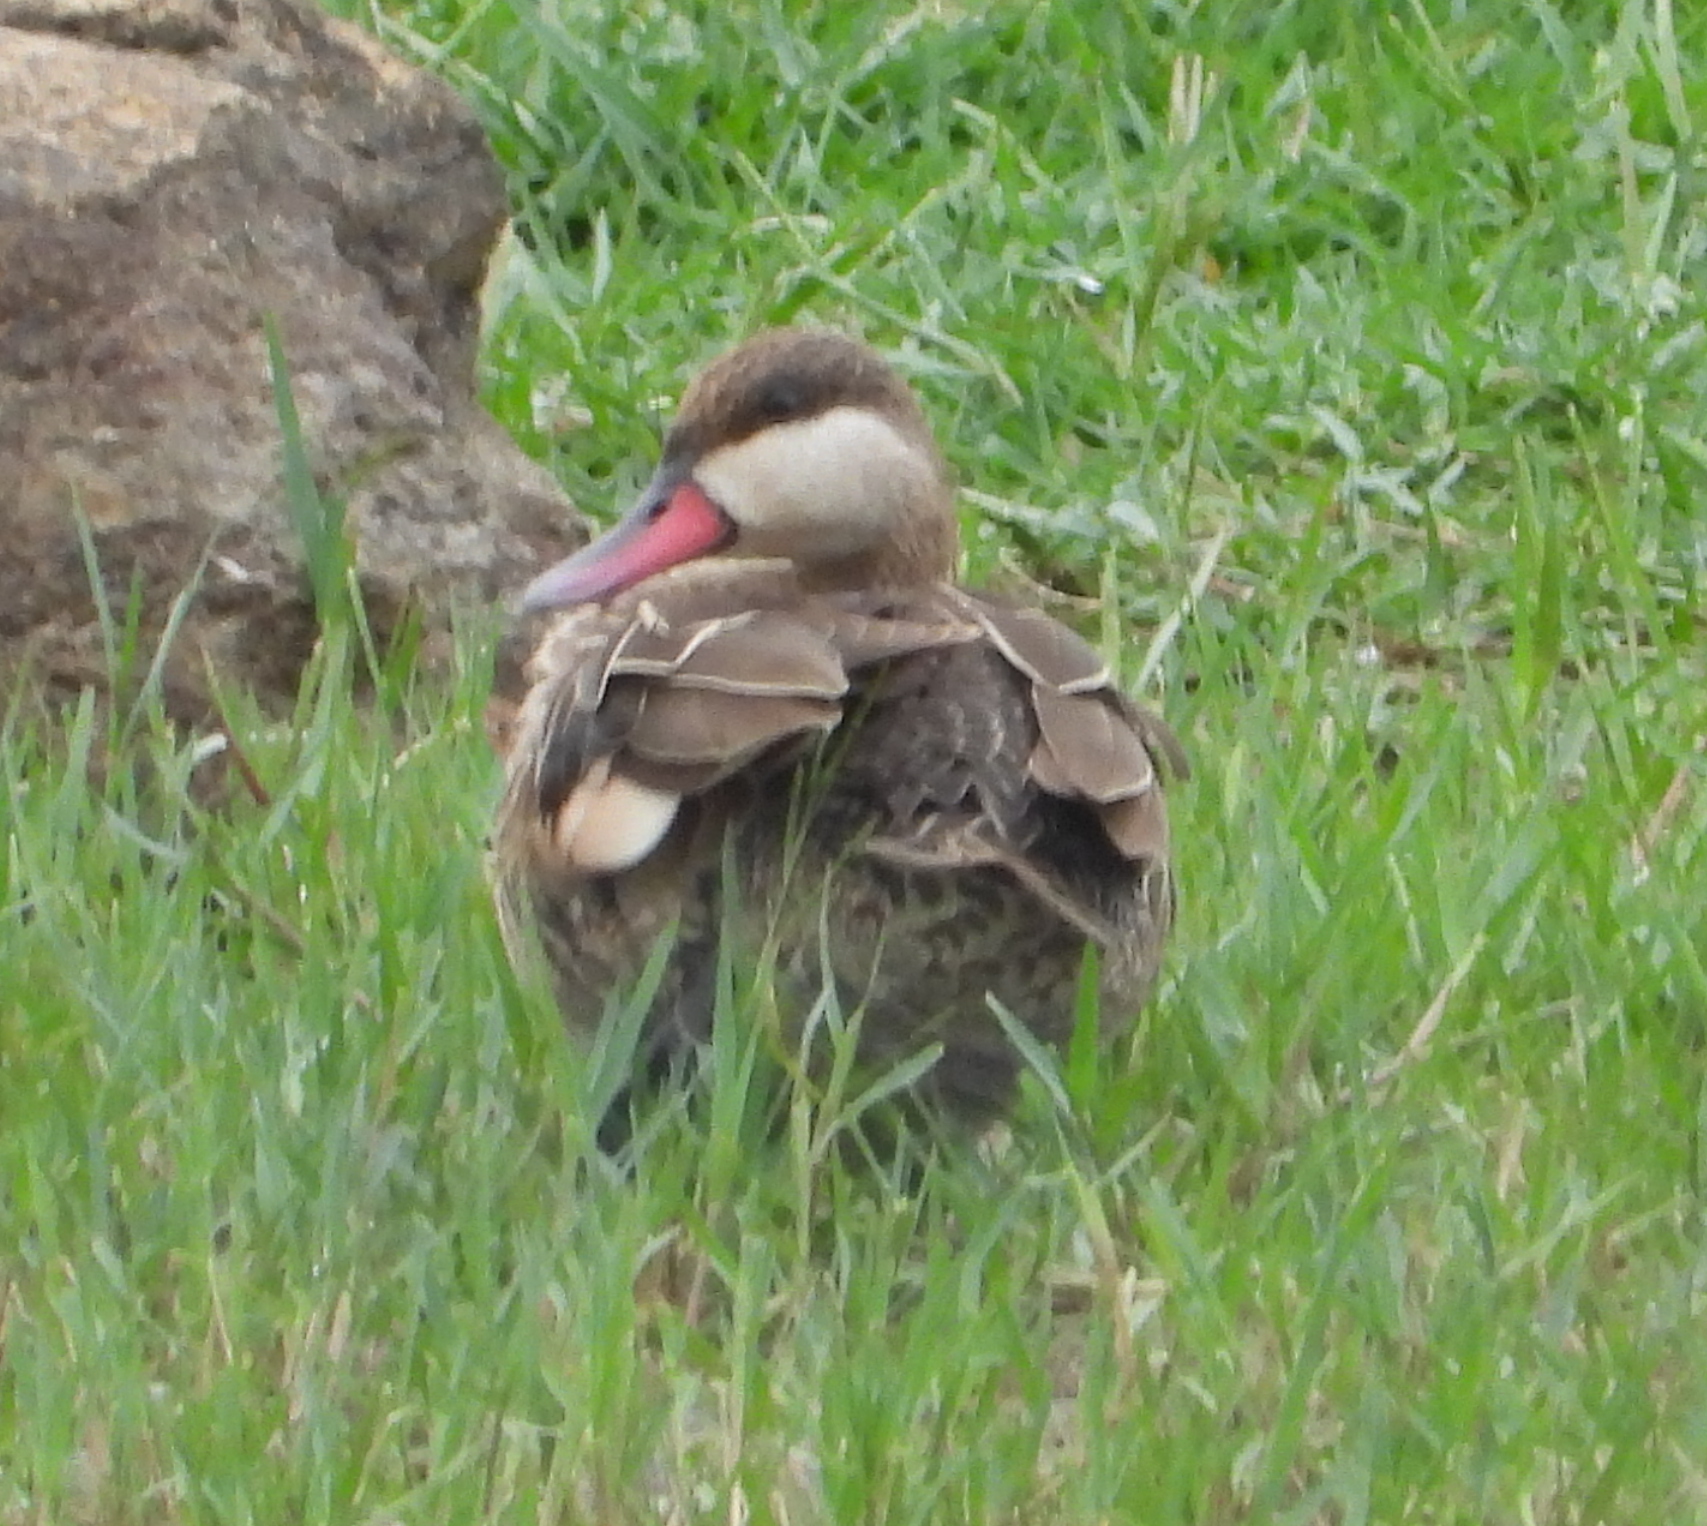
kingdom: Animalia
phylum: Chordata
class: Aves
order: Anseriformes
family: Anatidae
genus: Anas
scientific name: Anas erythrorhyncha
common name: Red-billed teal
